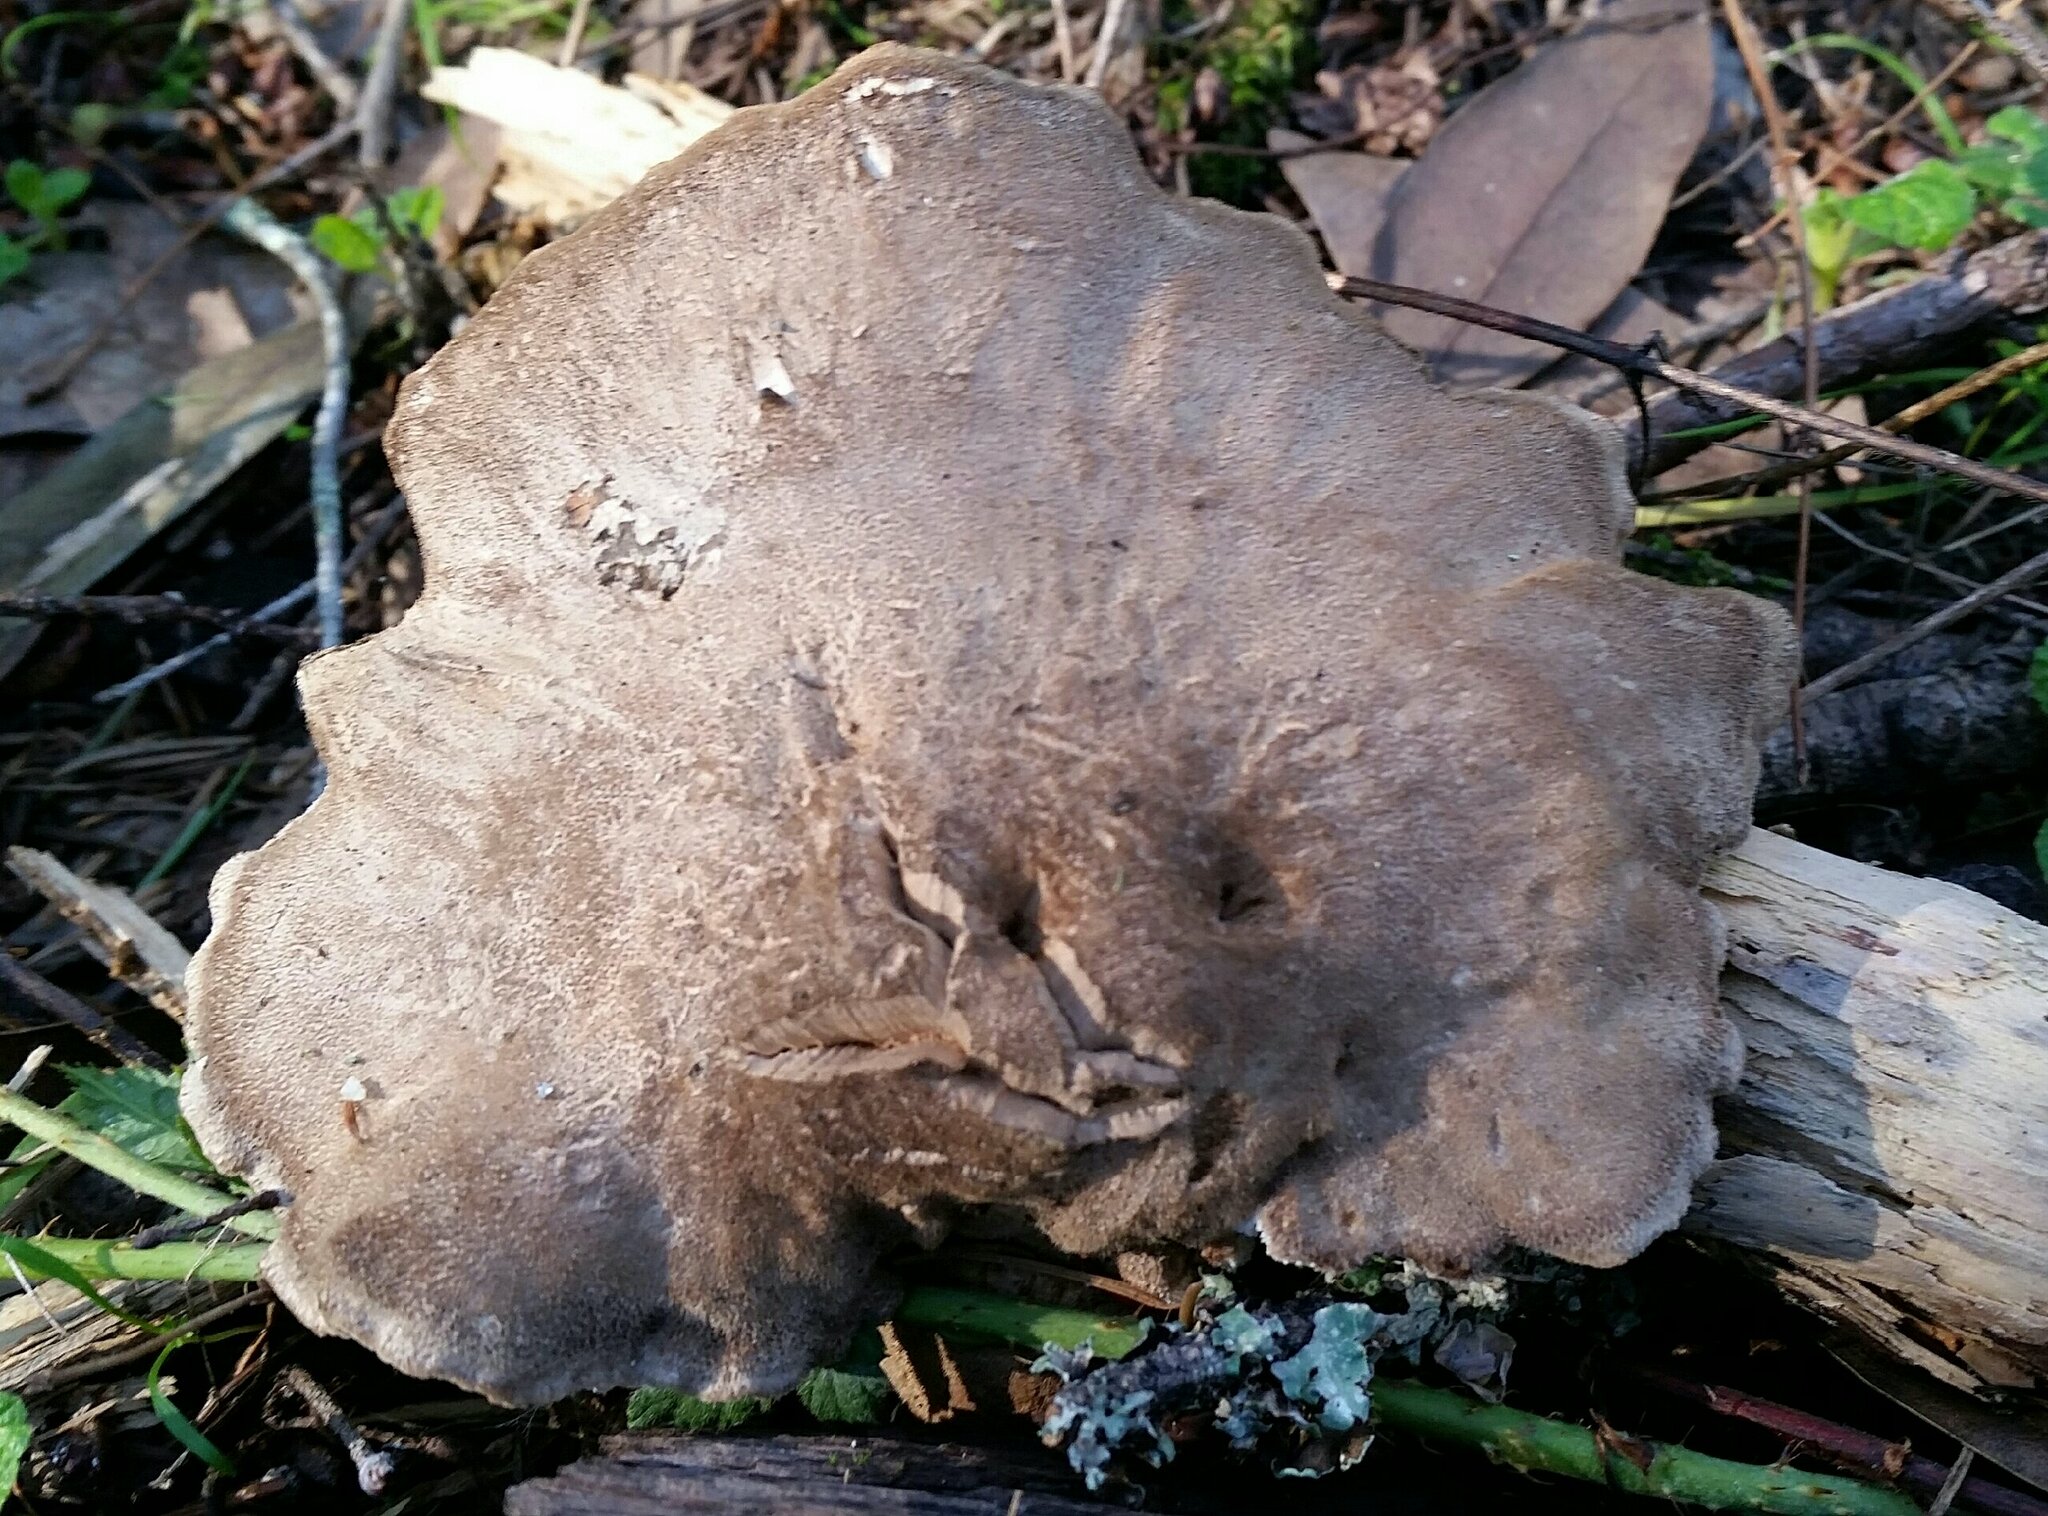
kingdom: Fungi
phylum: Basidiomycota
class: Agaricomycetes
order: Polyporales
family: Dacryobolaceae
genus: Jahnoporus
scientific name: Jahnoporus hirtus
